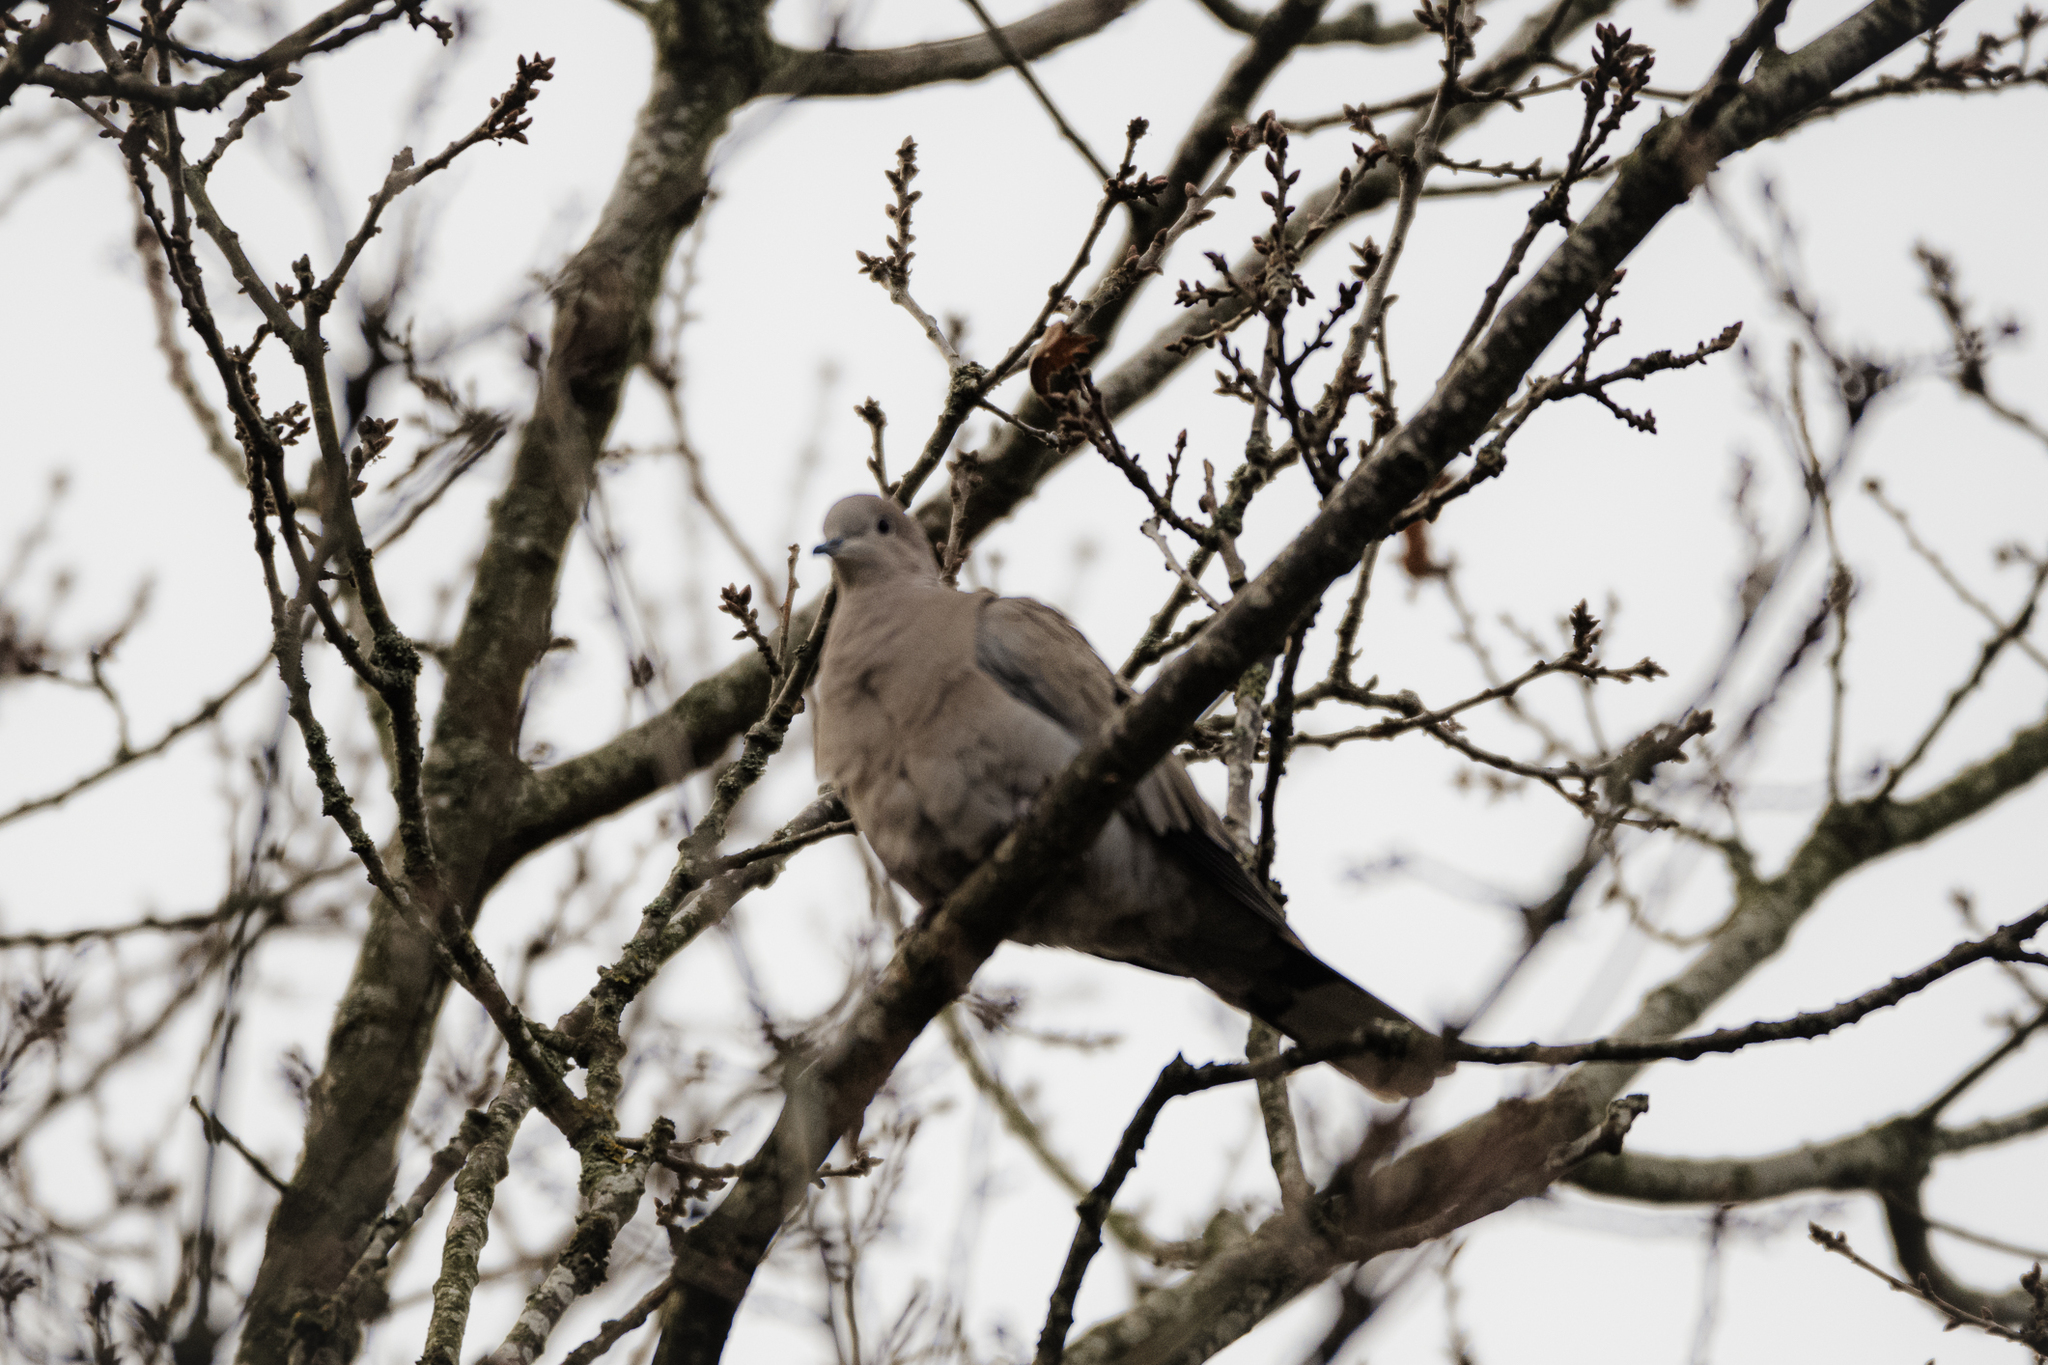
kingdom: Animalia
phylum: Chordata
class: Aves
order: Columbiformes
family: Columbidae
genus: Streptopelia
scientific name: Streptopelia decaocto
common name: Eurasian collared dove
